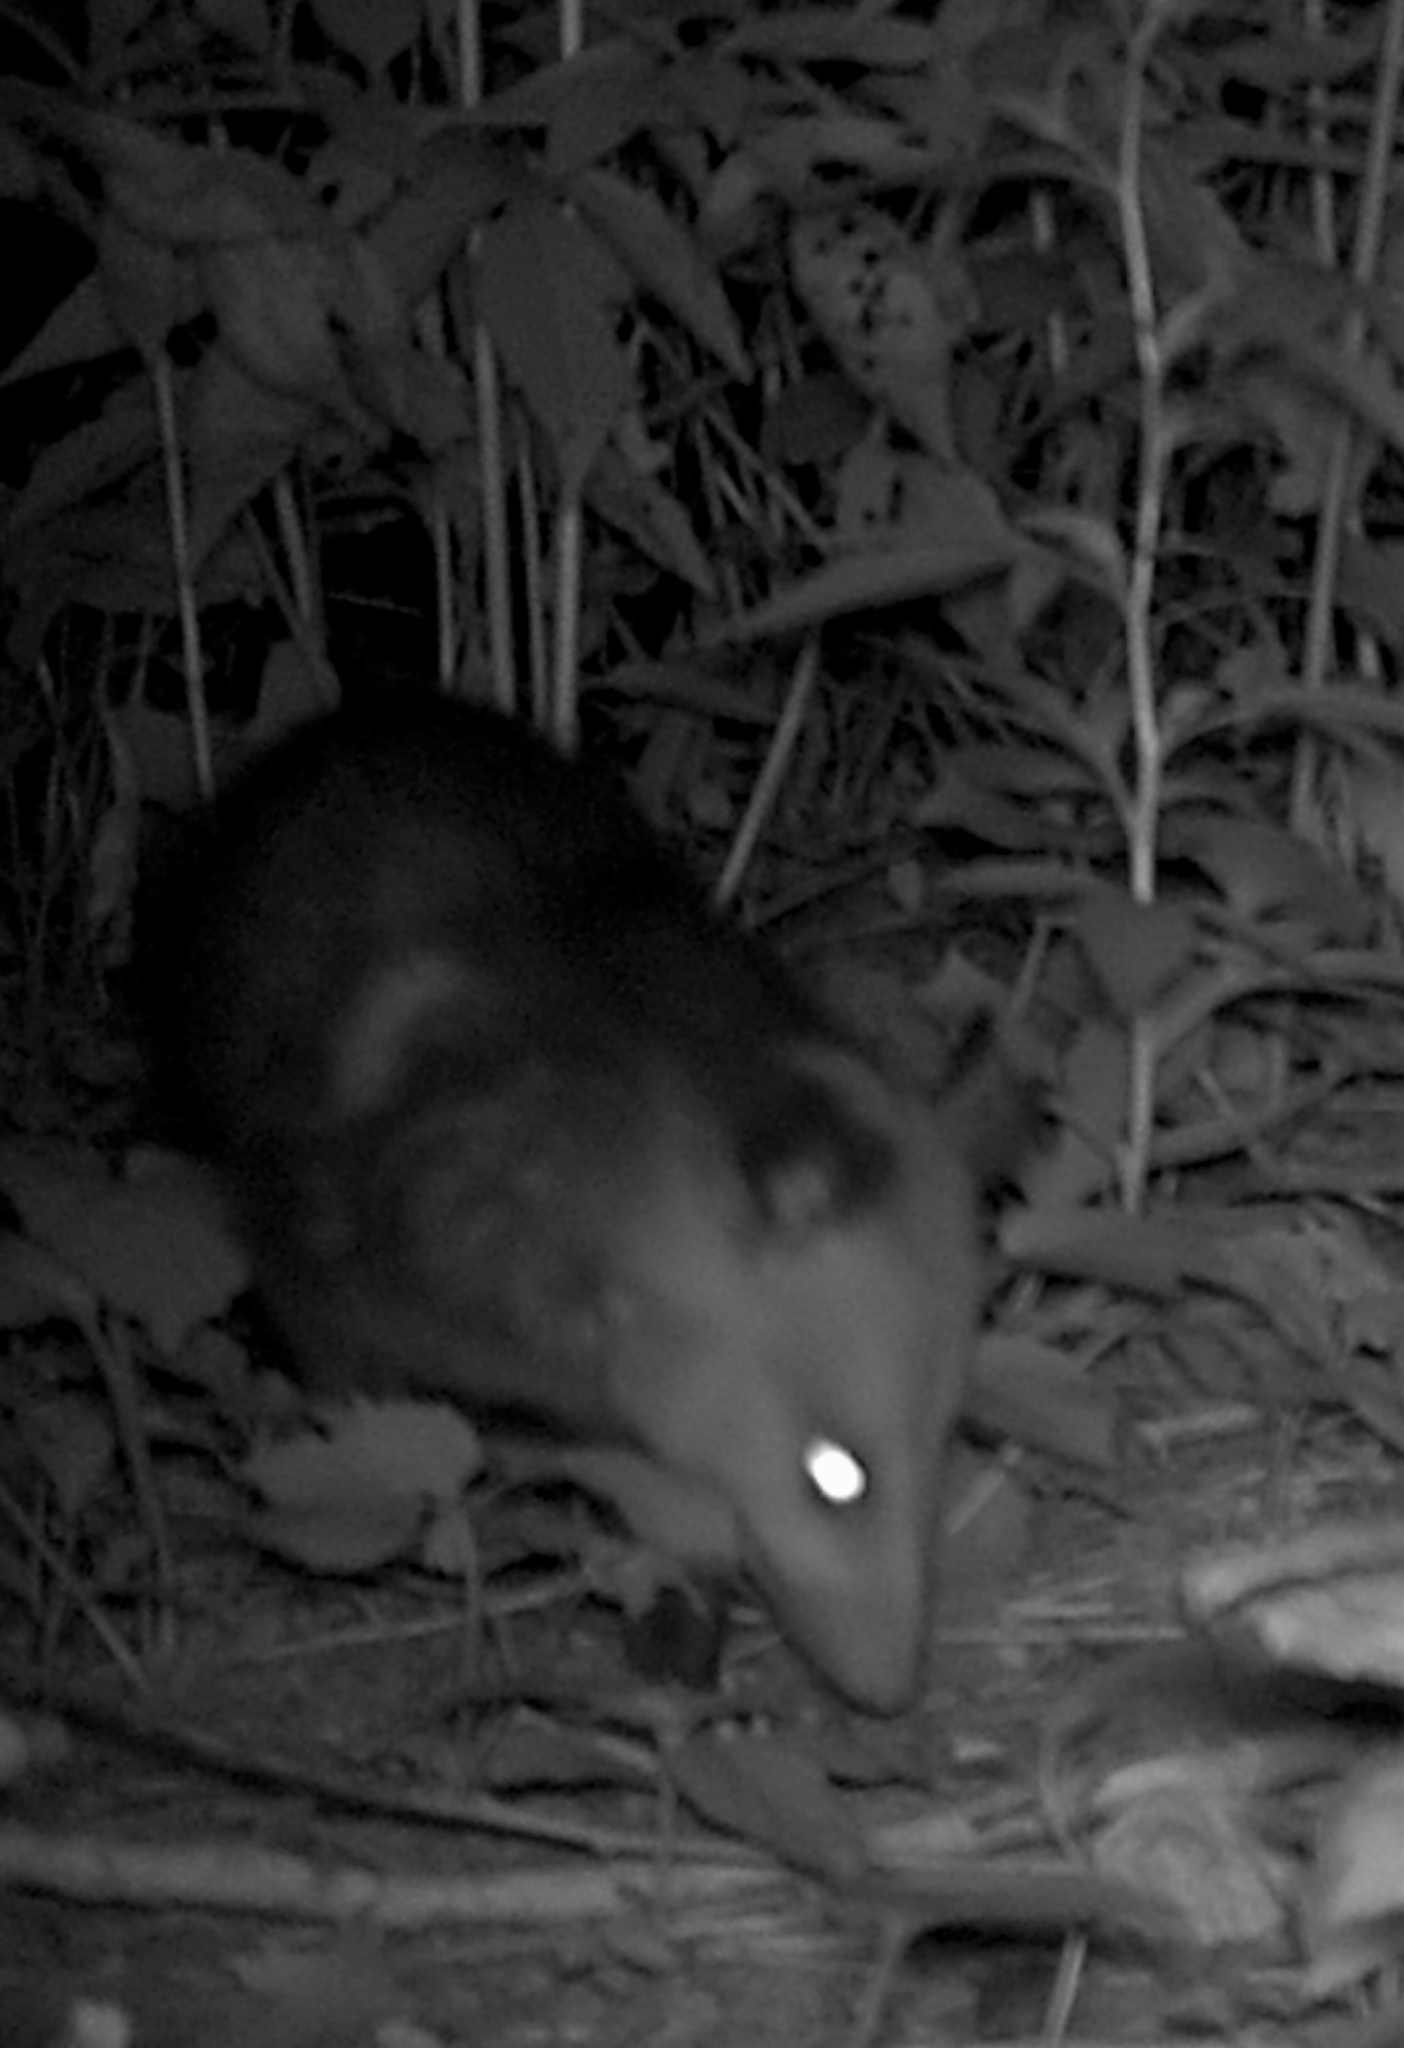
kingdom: Animalia
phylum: Chordata
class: Mammalia
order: Didelphimorphia
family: Didelphidae
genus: Didelphis
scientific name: Didelphis virginiana
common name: Virginia opossum
